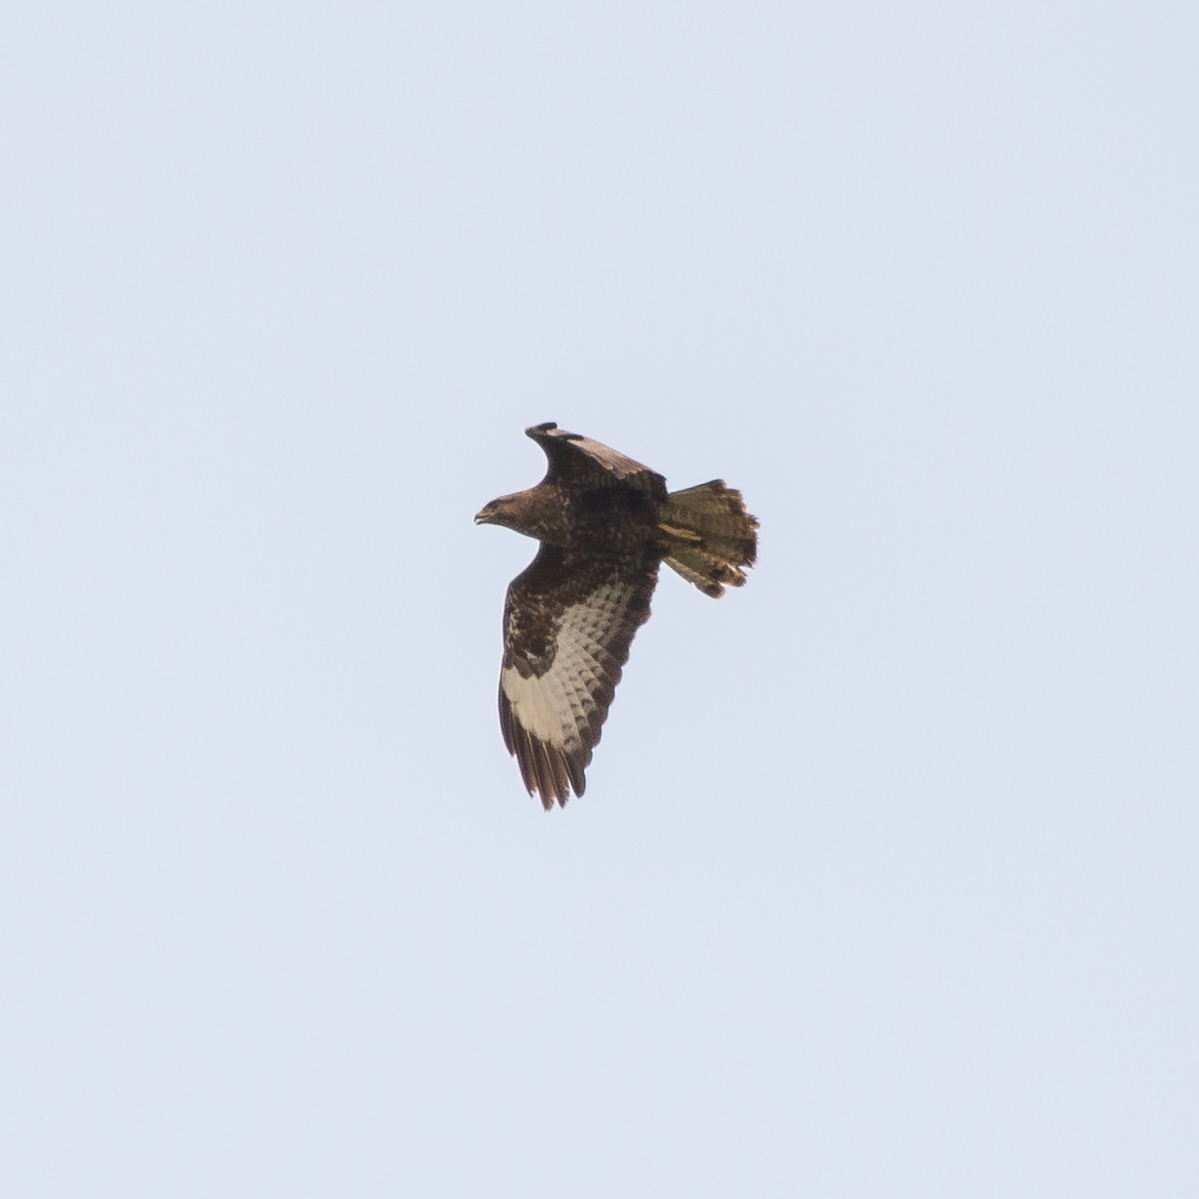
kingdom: Animalia
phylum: Chordata
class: Aves
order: Accipitriformes
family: Accipitridae
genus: Buteo
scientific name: Buteo buteo
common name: Common buzzard
